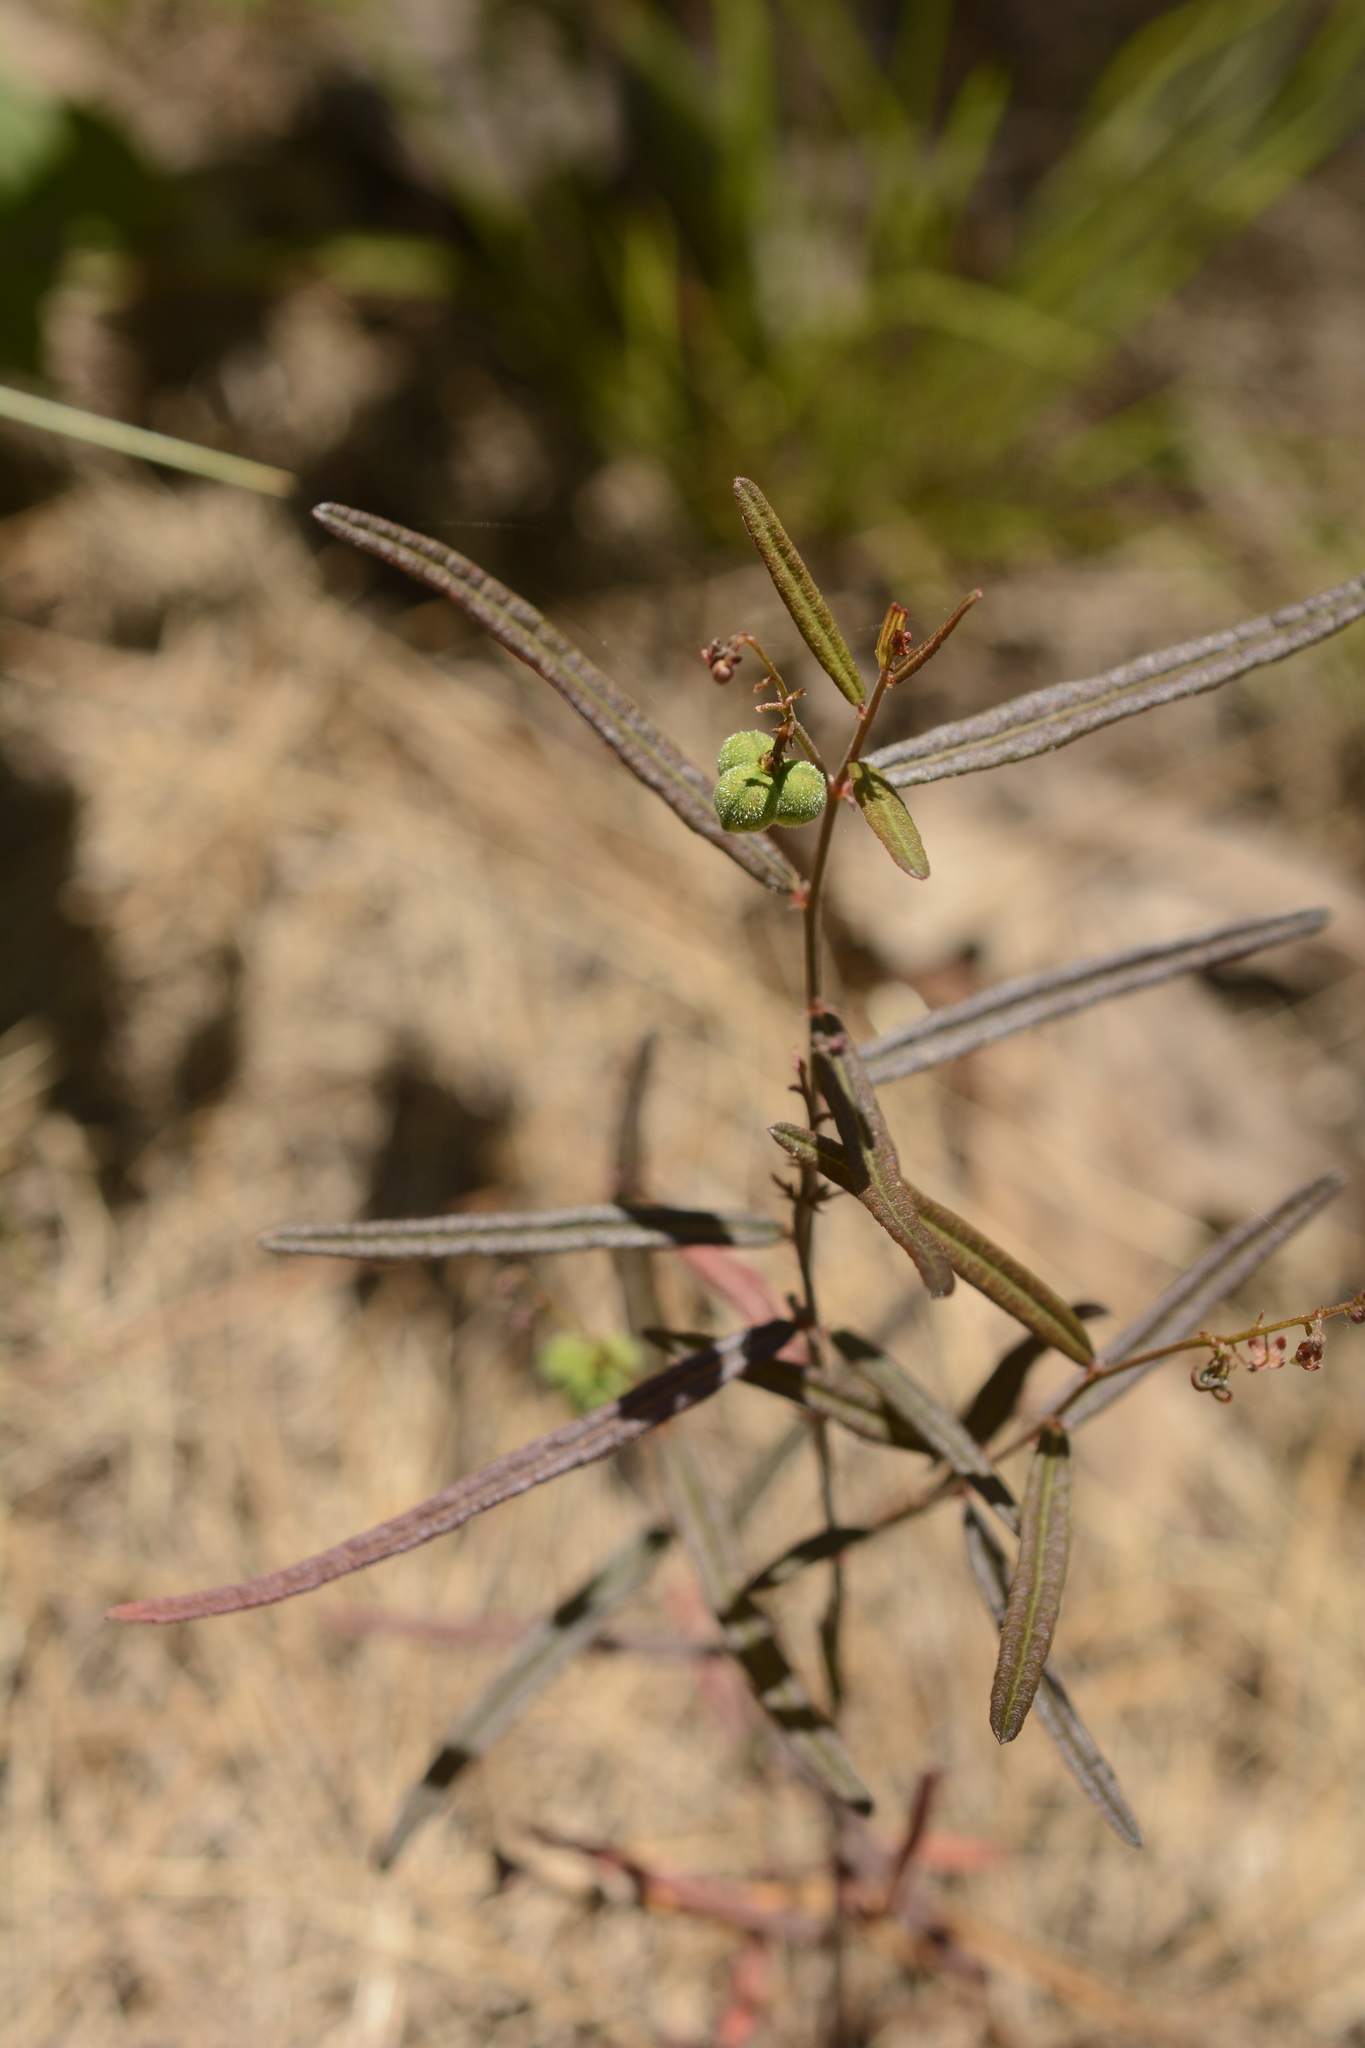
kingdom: Plantae
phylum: Tracheophyta
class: Magnoliopsida
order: Malpighiales
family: Euphorbiaceae
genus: Tragia
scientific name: Tragia urens
